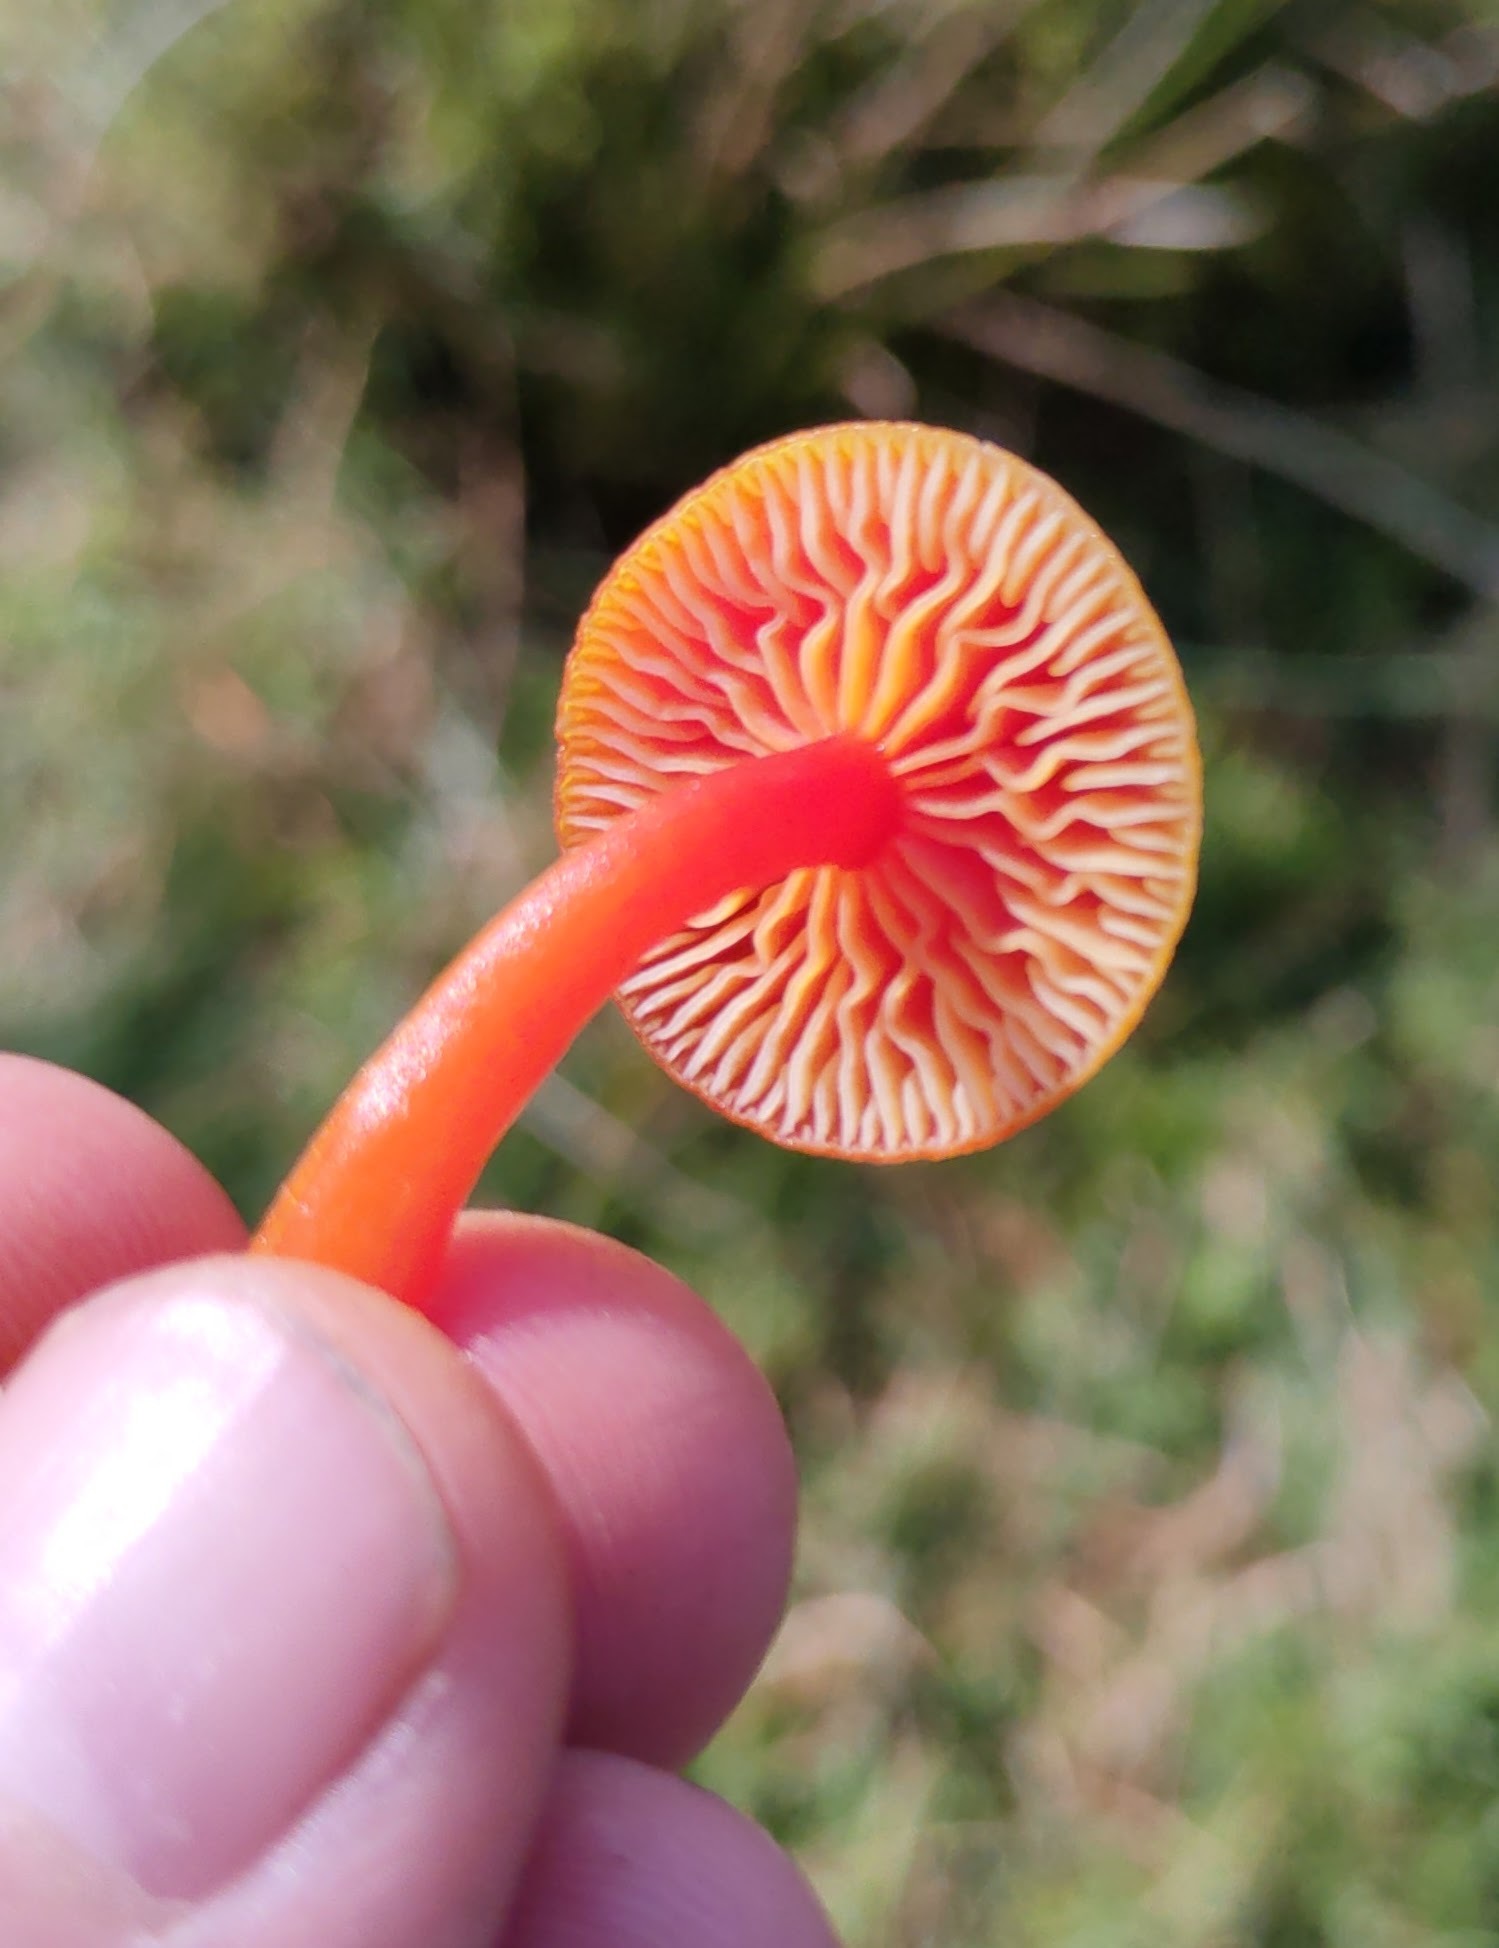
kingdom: Fungi
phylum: Basidiomycota
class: Agaricomycetes
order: Agaricales
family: Hygrophoraceae
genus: Hygrocybe
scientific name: Hygrocybe coccinea
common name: Scarlet hood
